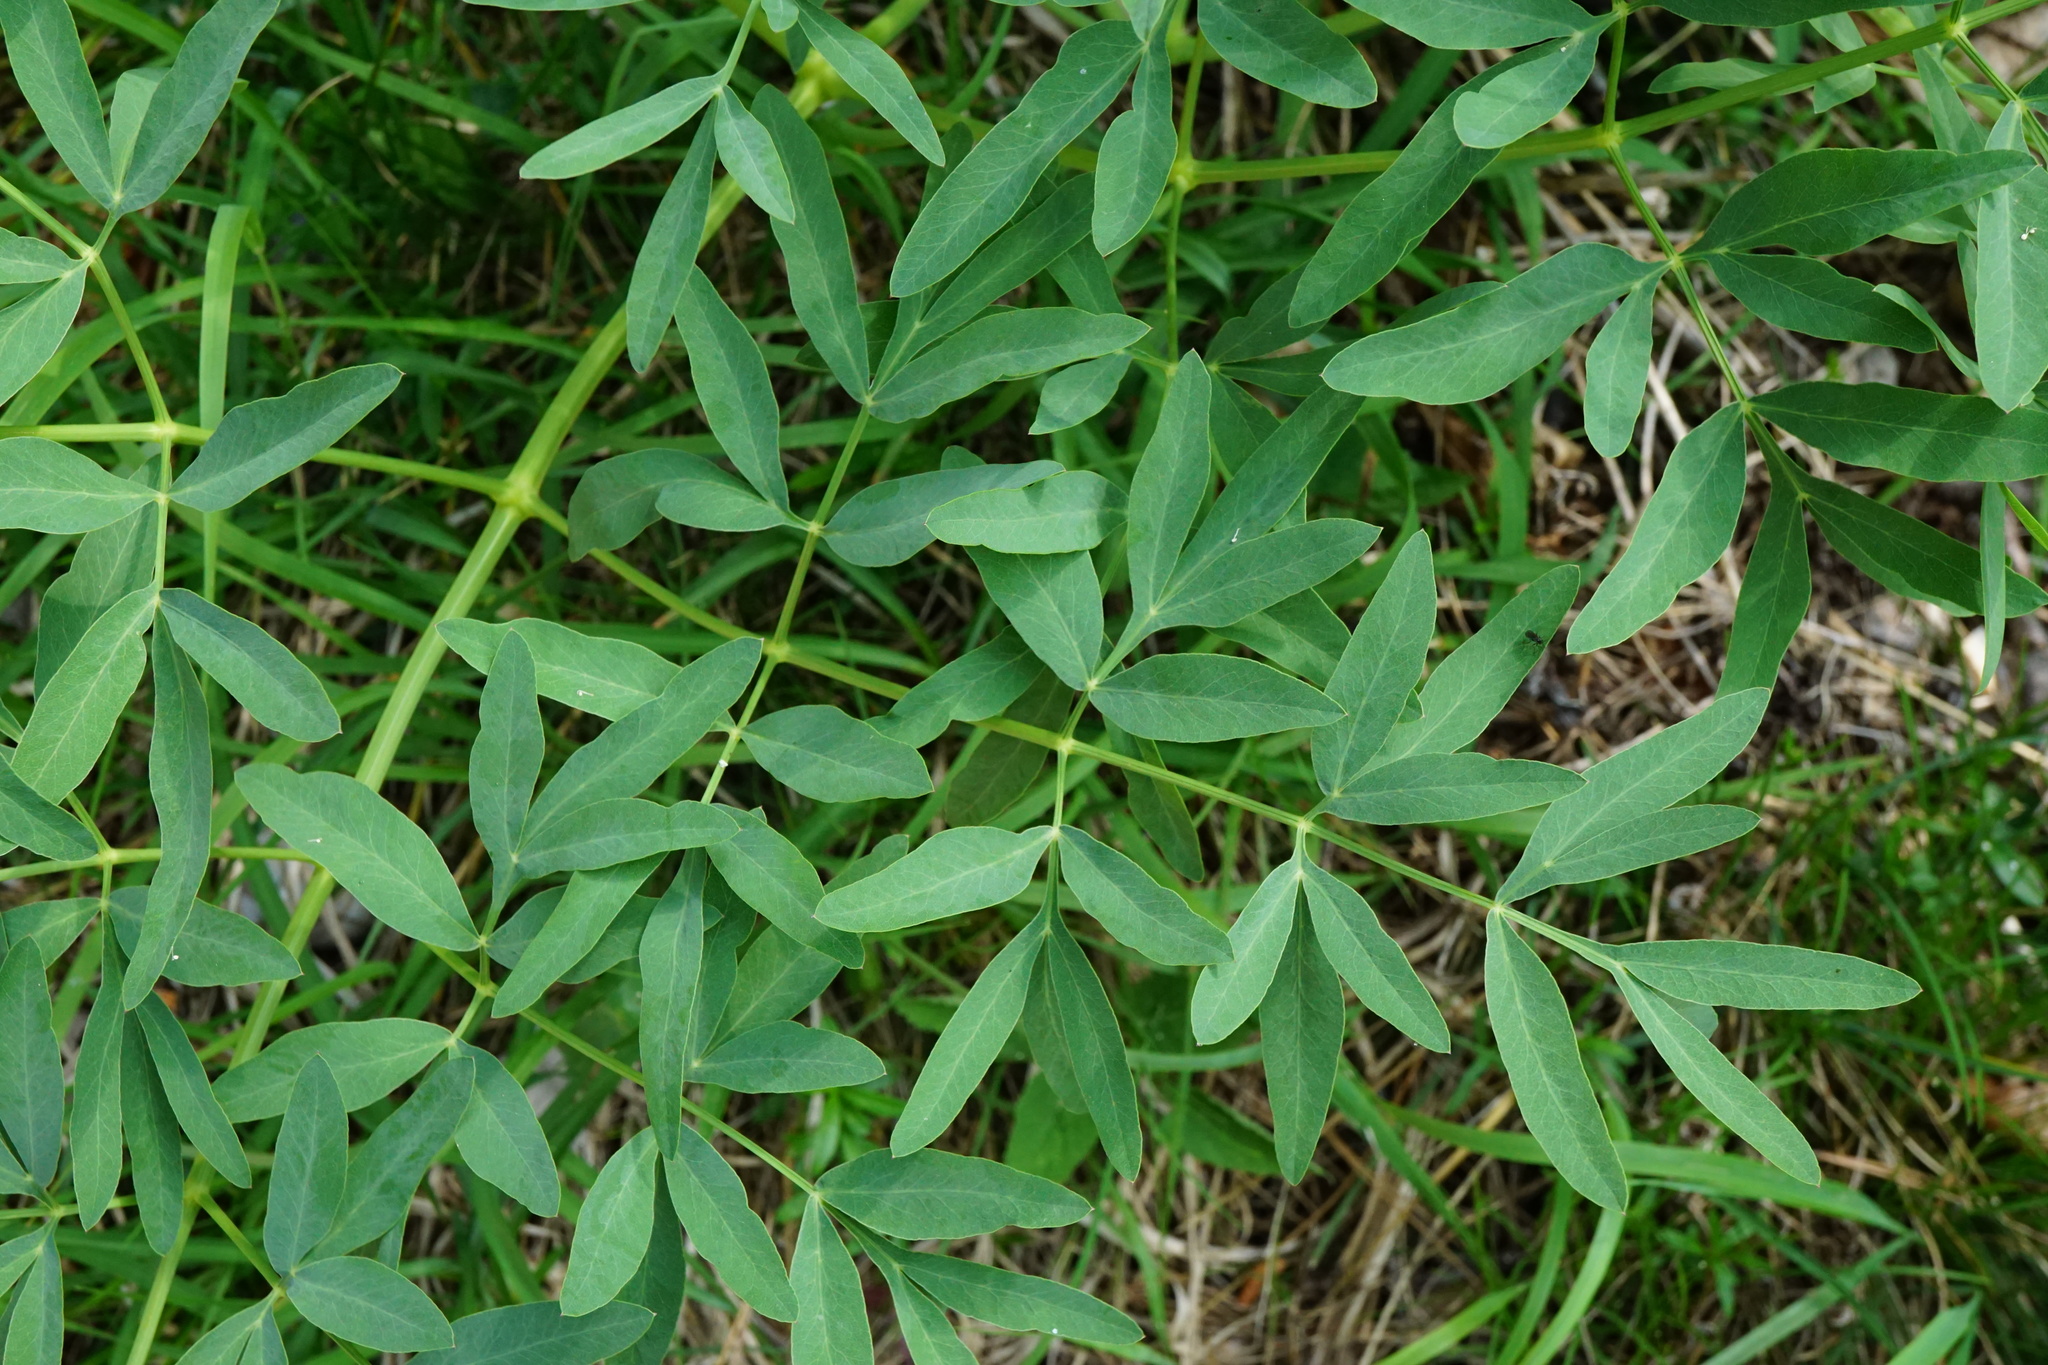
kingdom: Plantae
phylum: Tracheophyta
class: Magnoliopsida
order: Apiales
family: Apiaceae
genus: Siler
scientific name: Siler montanum
